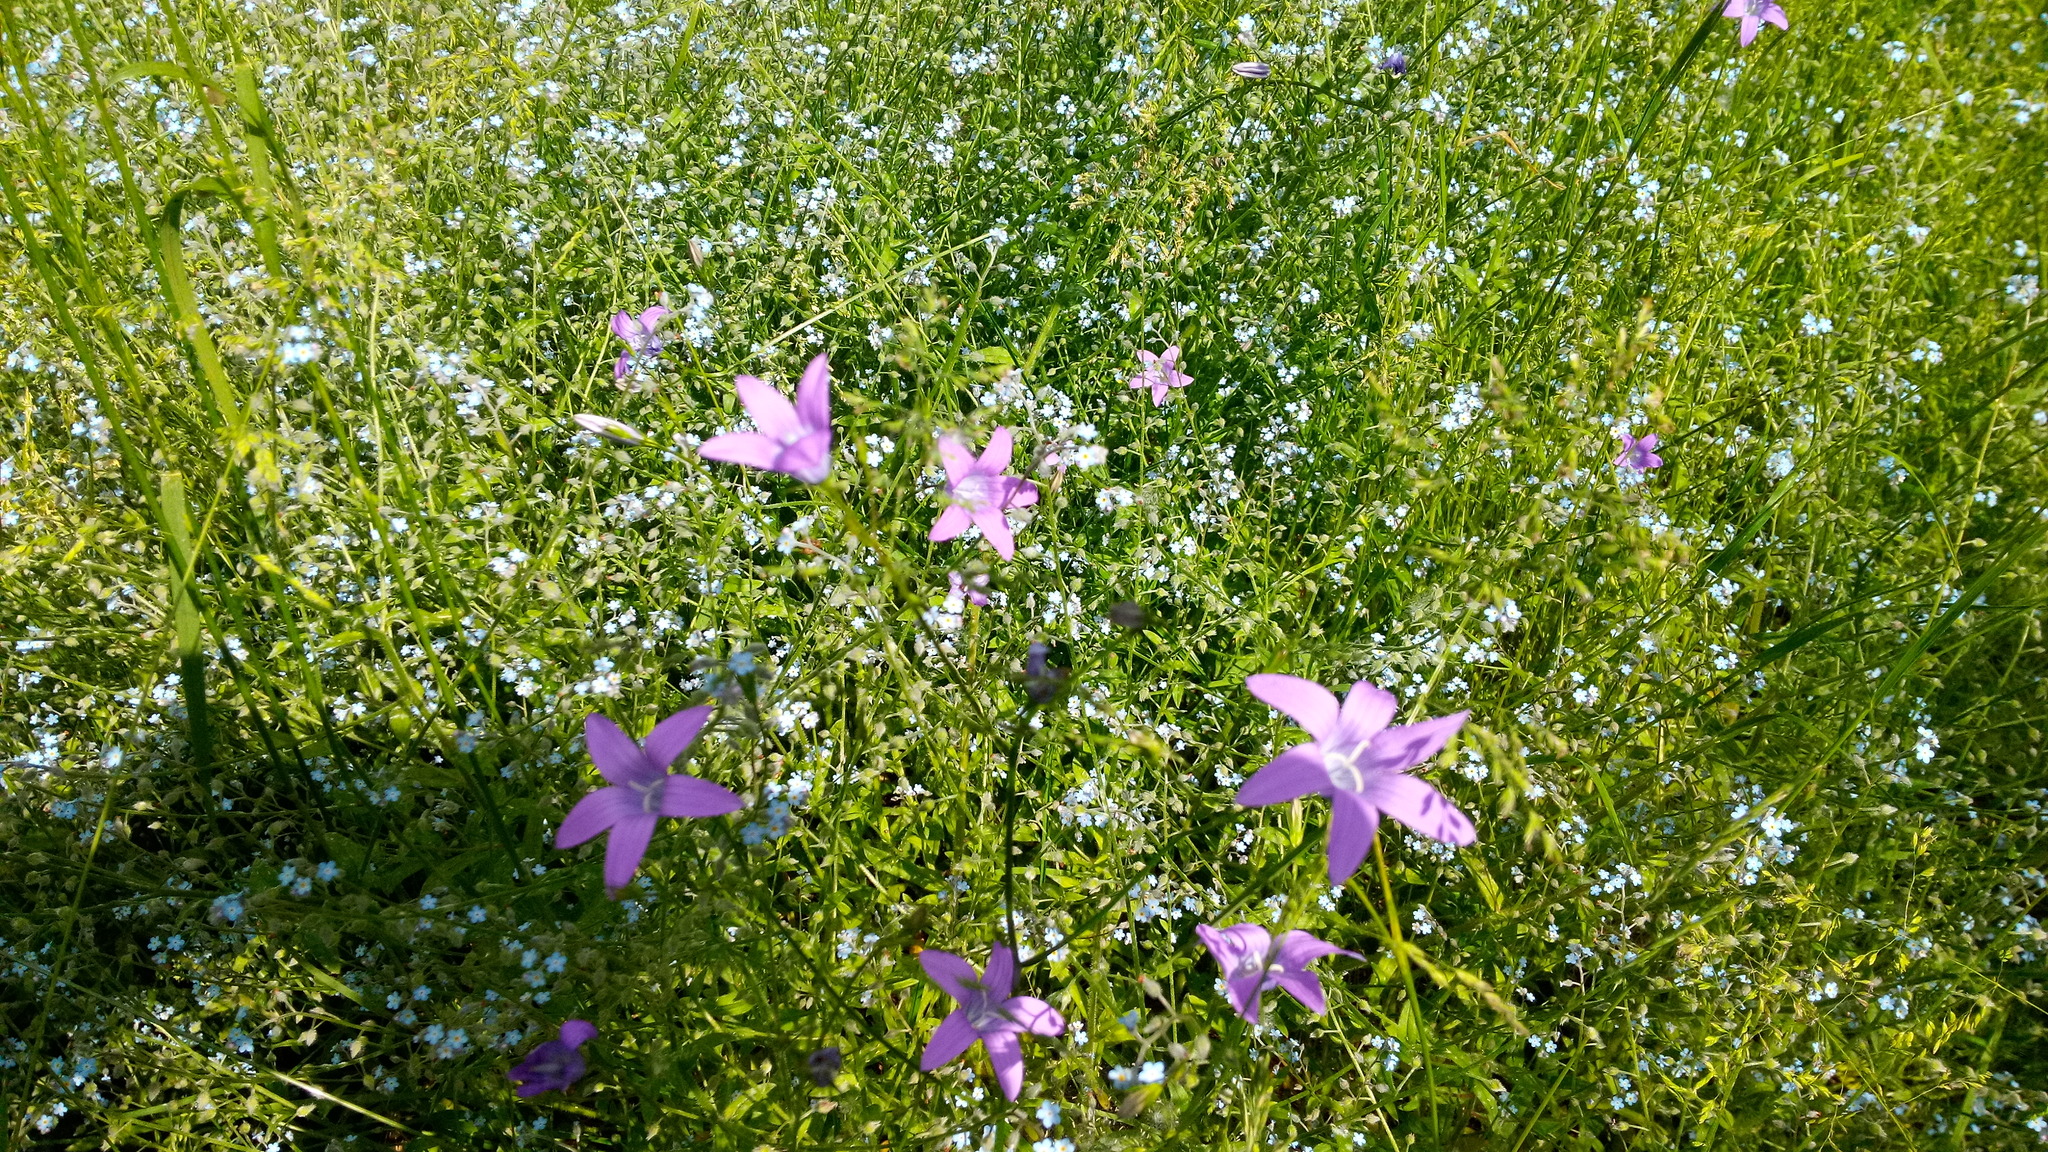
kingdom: Plantae
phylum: Tracheophyta
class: Magnoliopsida
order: Asterales
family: Campanulaceae
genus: Campanula
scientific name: Campanula patula
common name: Spreading bellflower
